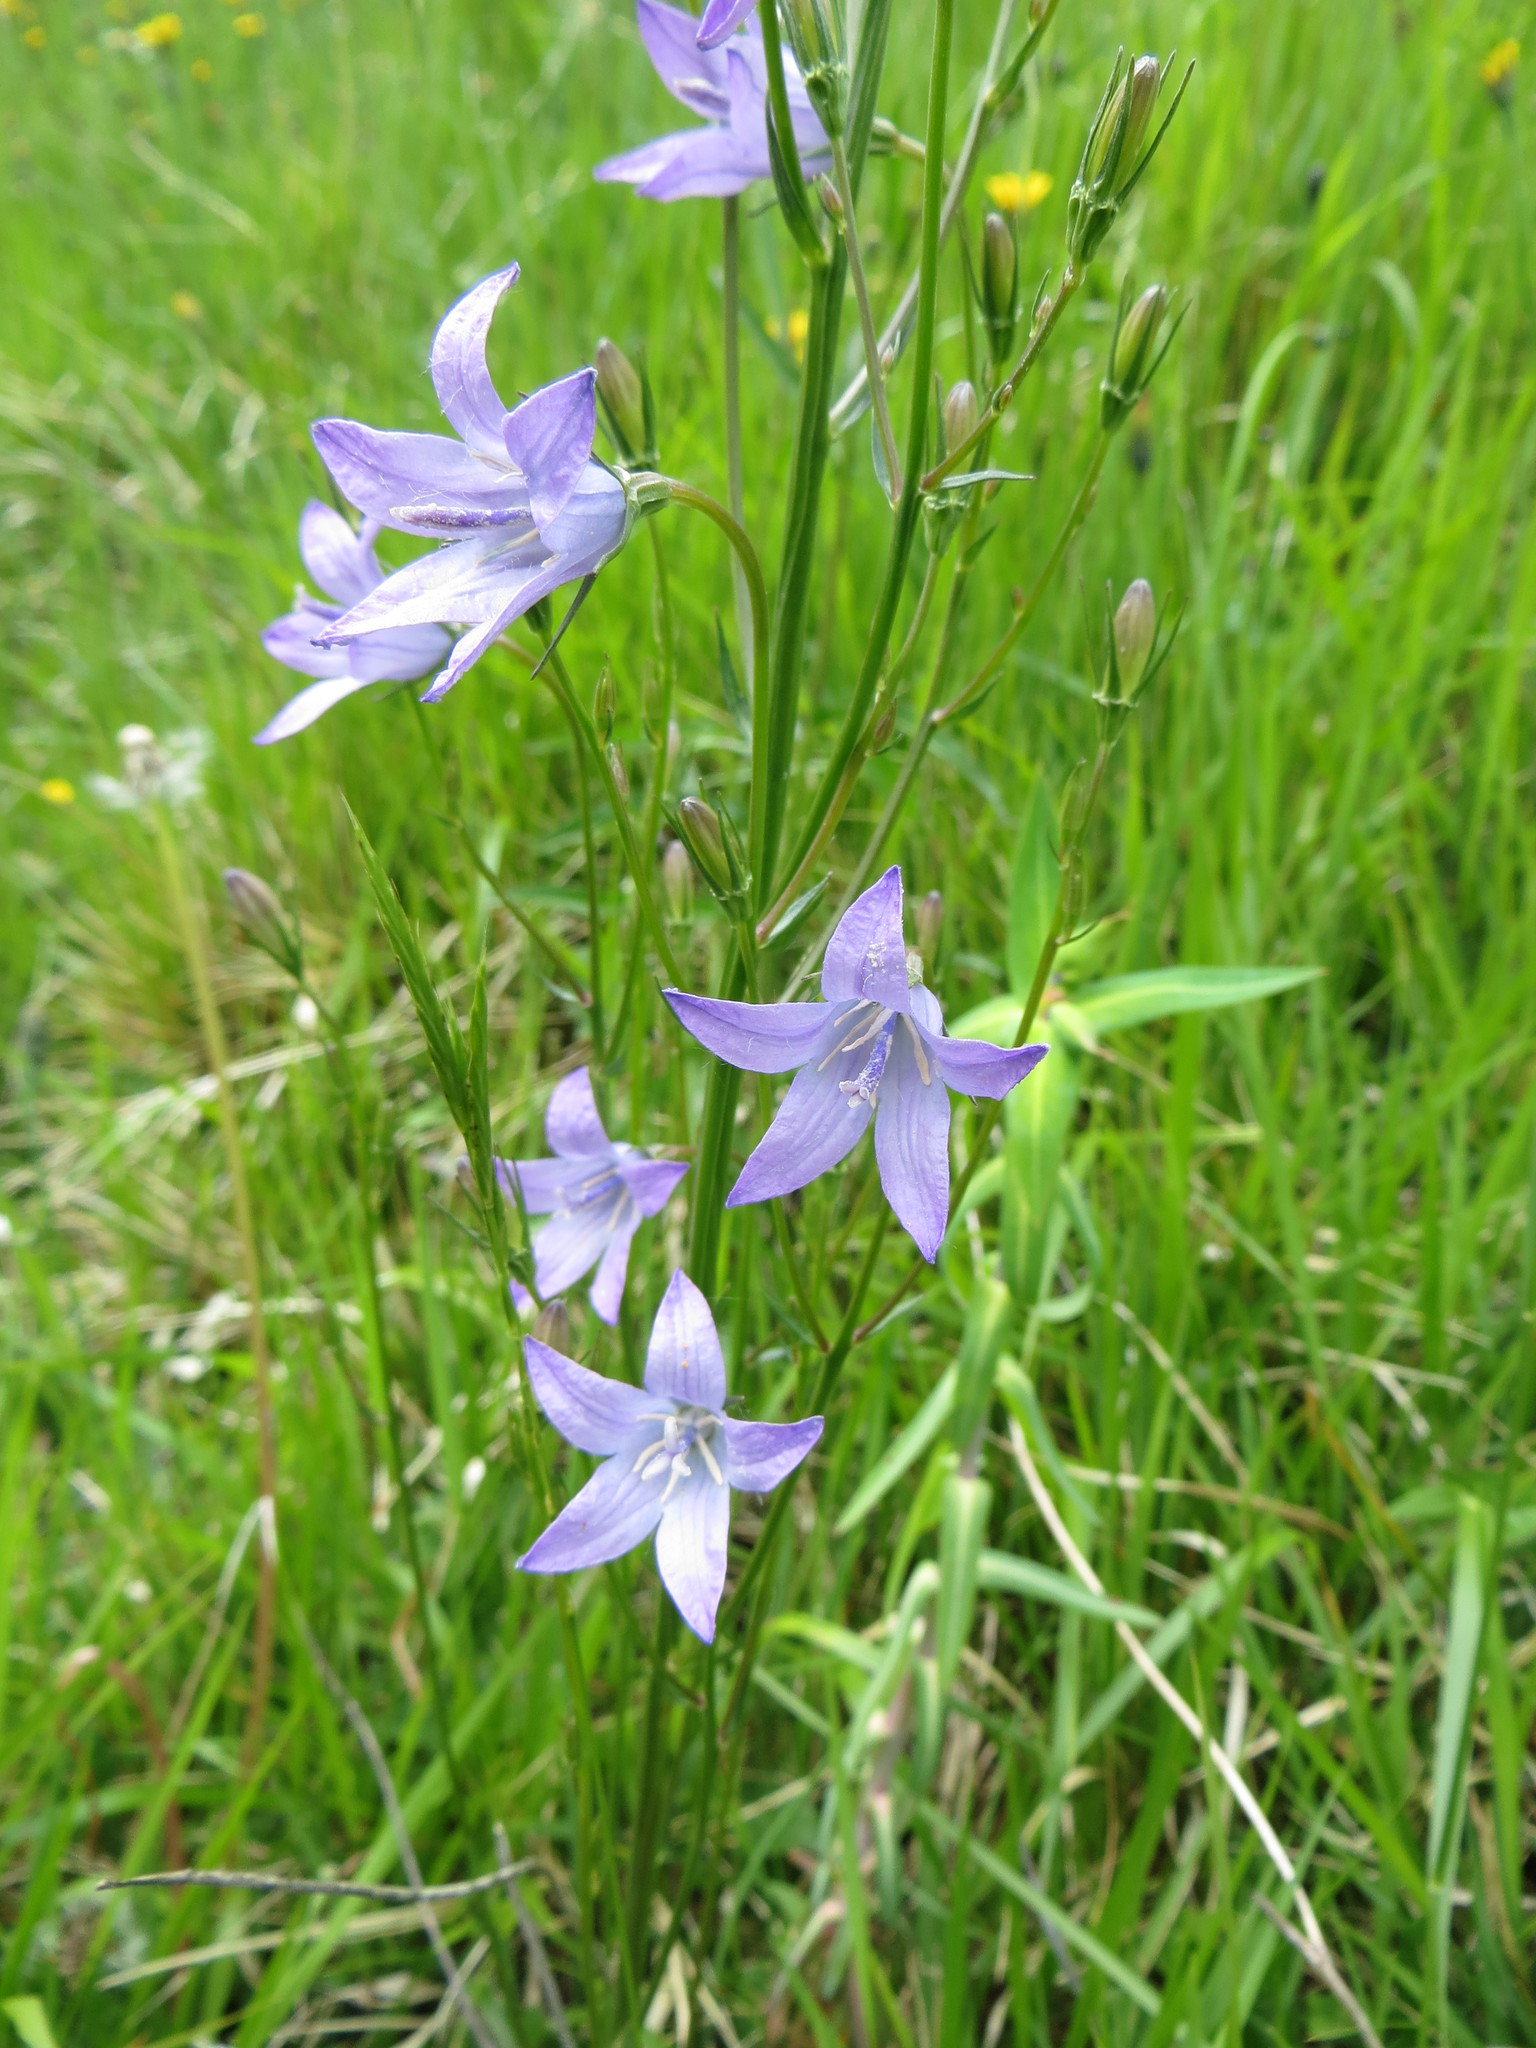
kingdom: Plantae
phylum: Tracheophyta
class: Magnoliopsida
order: Asterales
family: Campanulaceae
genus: Campanula
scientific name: Campanula rapunculus
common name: Rampion bellflower
